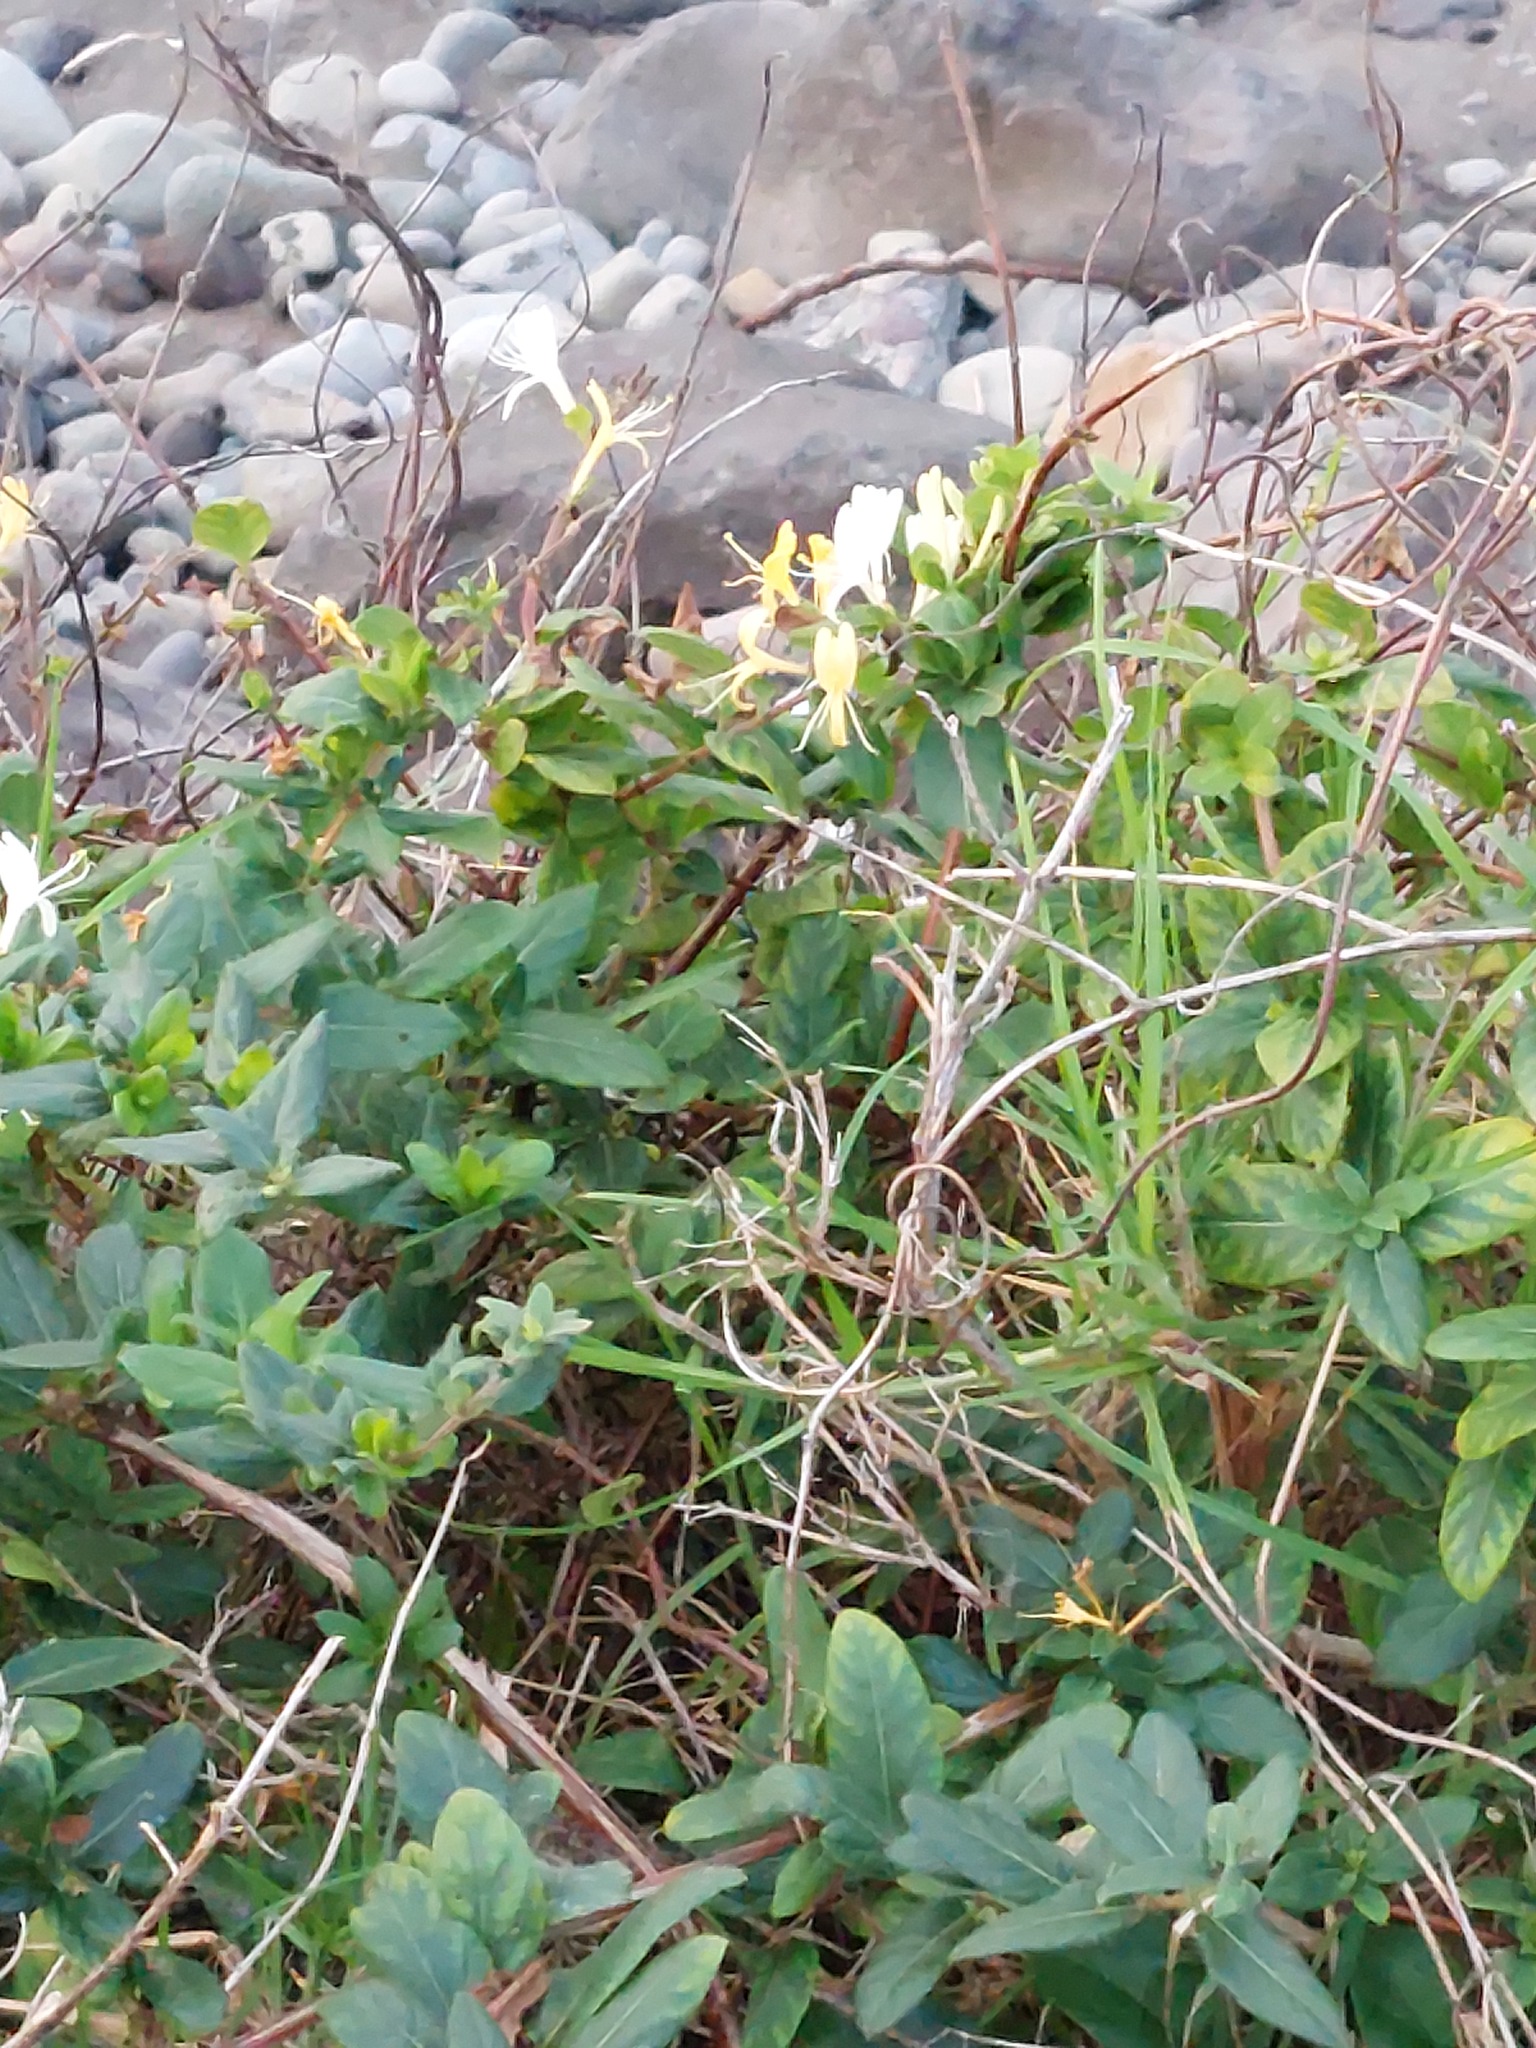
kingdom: Plantae
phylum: Tracheophyta
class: Magnoliopsida
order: Dipsacales
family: Caprifoliaceae
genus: Lonicera
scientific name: Lonicera japonica
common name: Japanese honeysuckle
